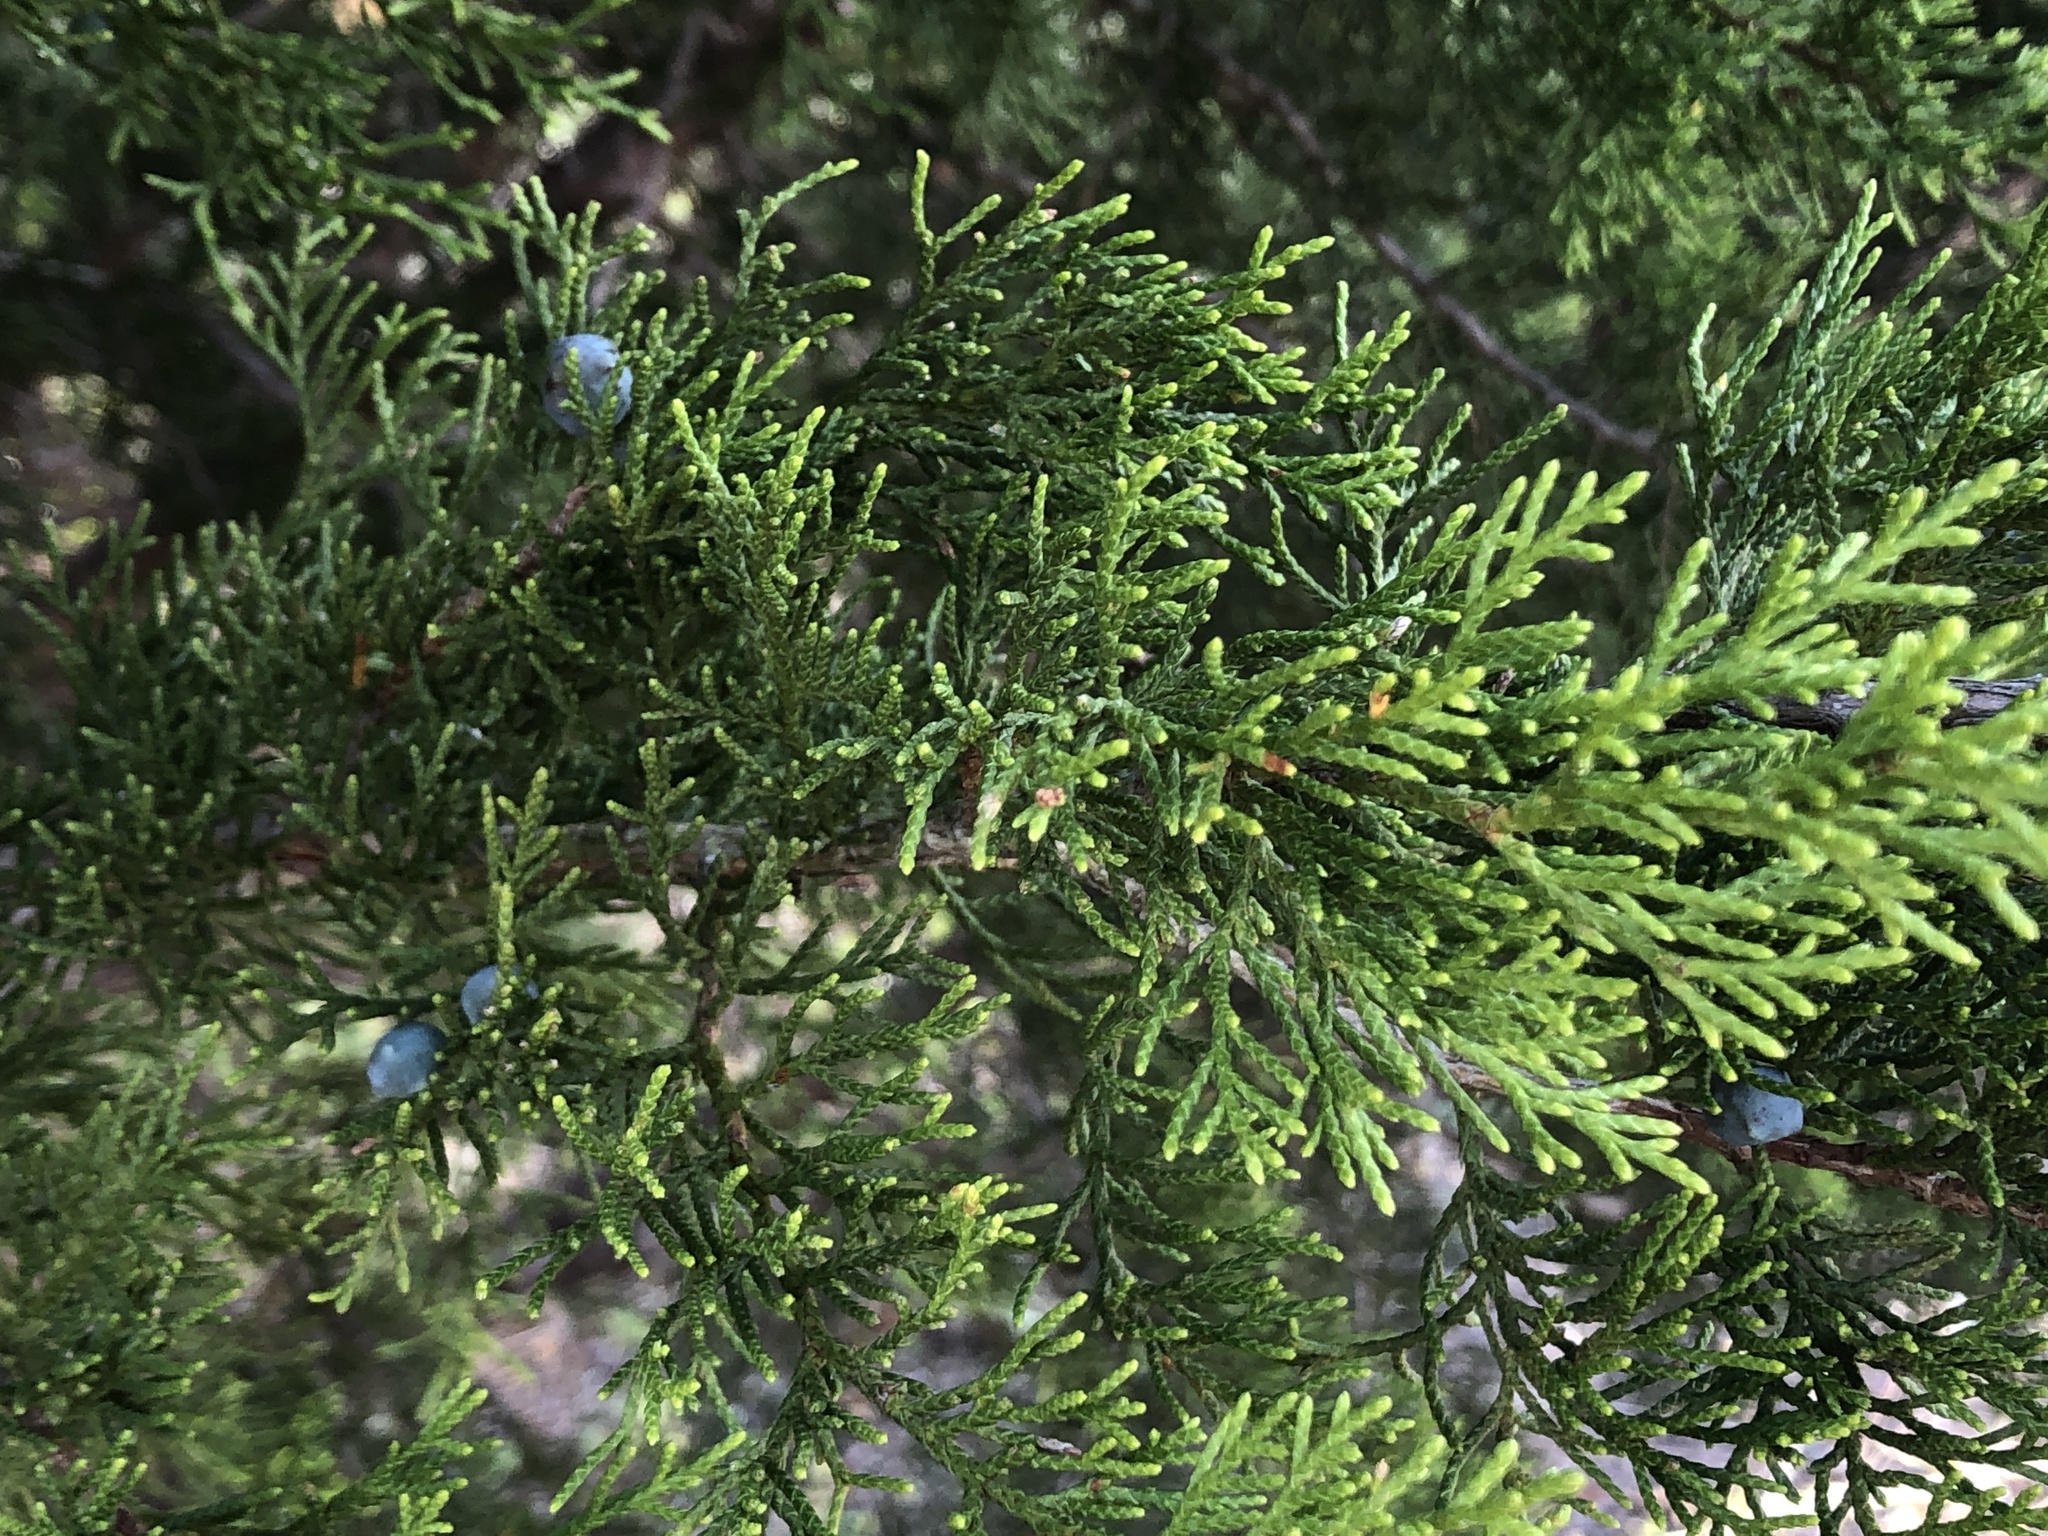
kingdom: Plantae
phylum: Tracheophyta
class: Pinopsida
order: Pinales
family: Cupressaceae
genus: Juniperus
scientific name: Juniperus ashei
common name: Mexican juniper
